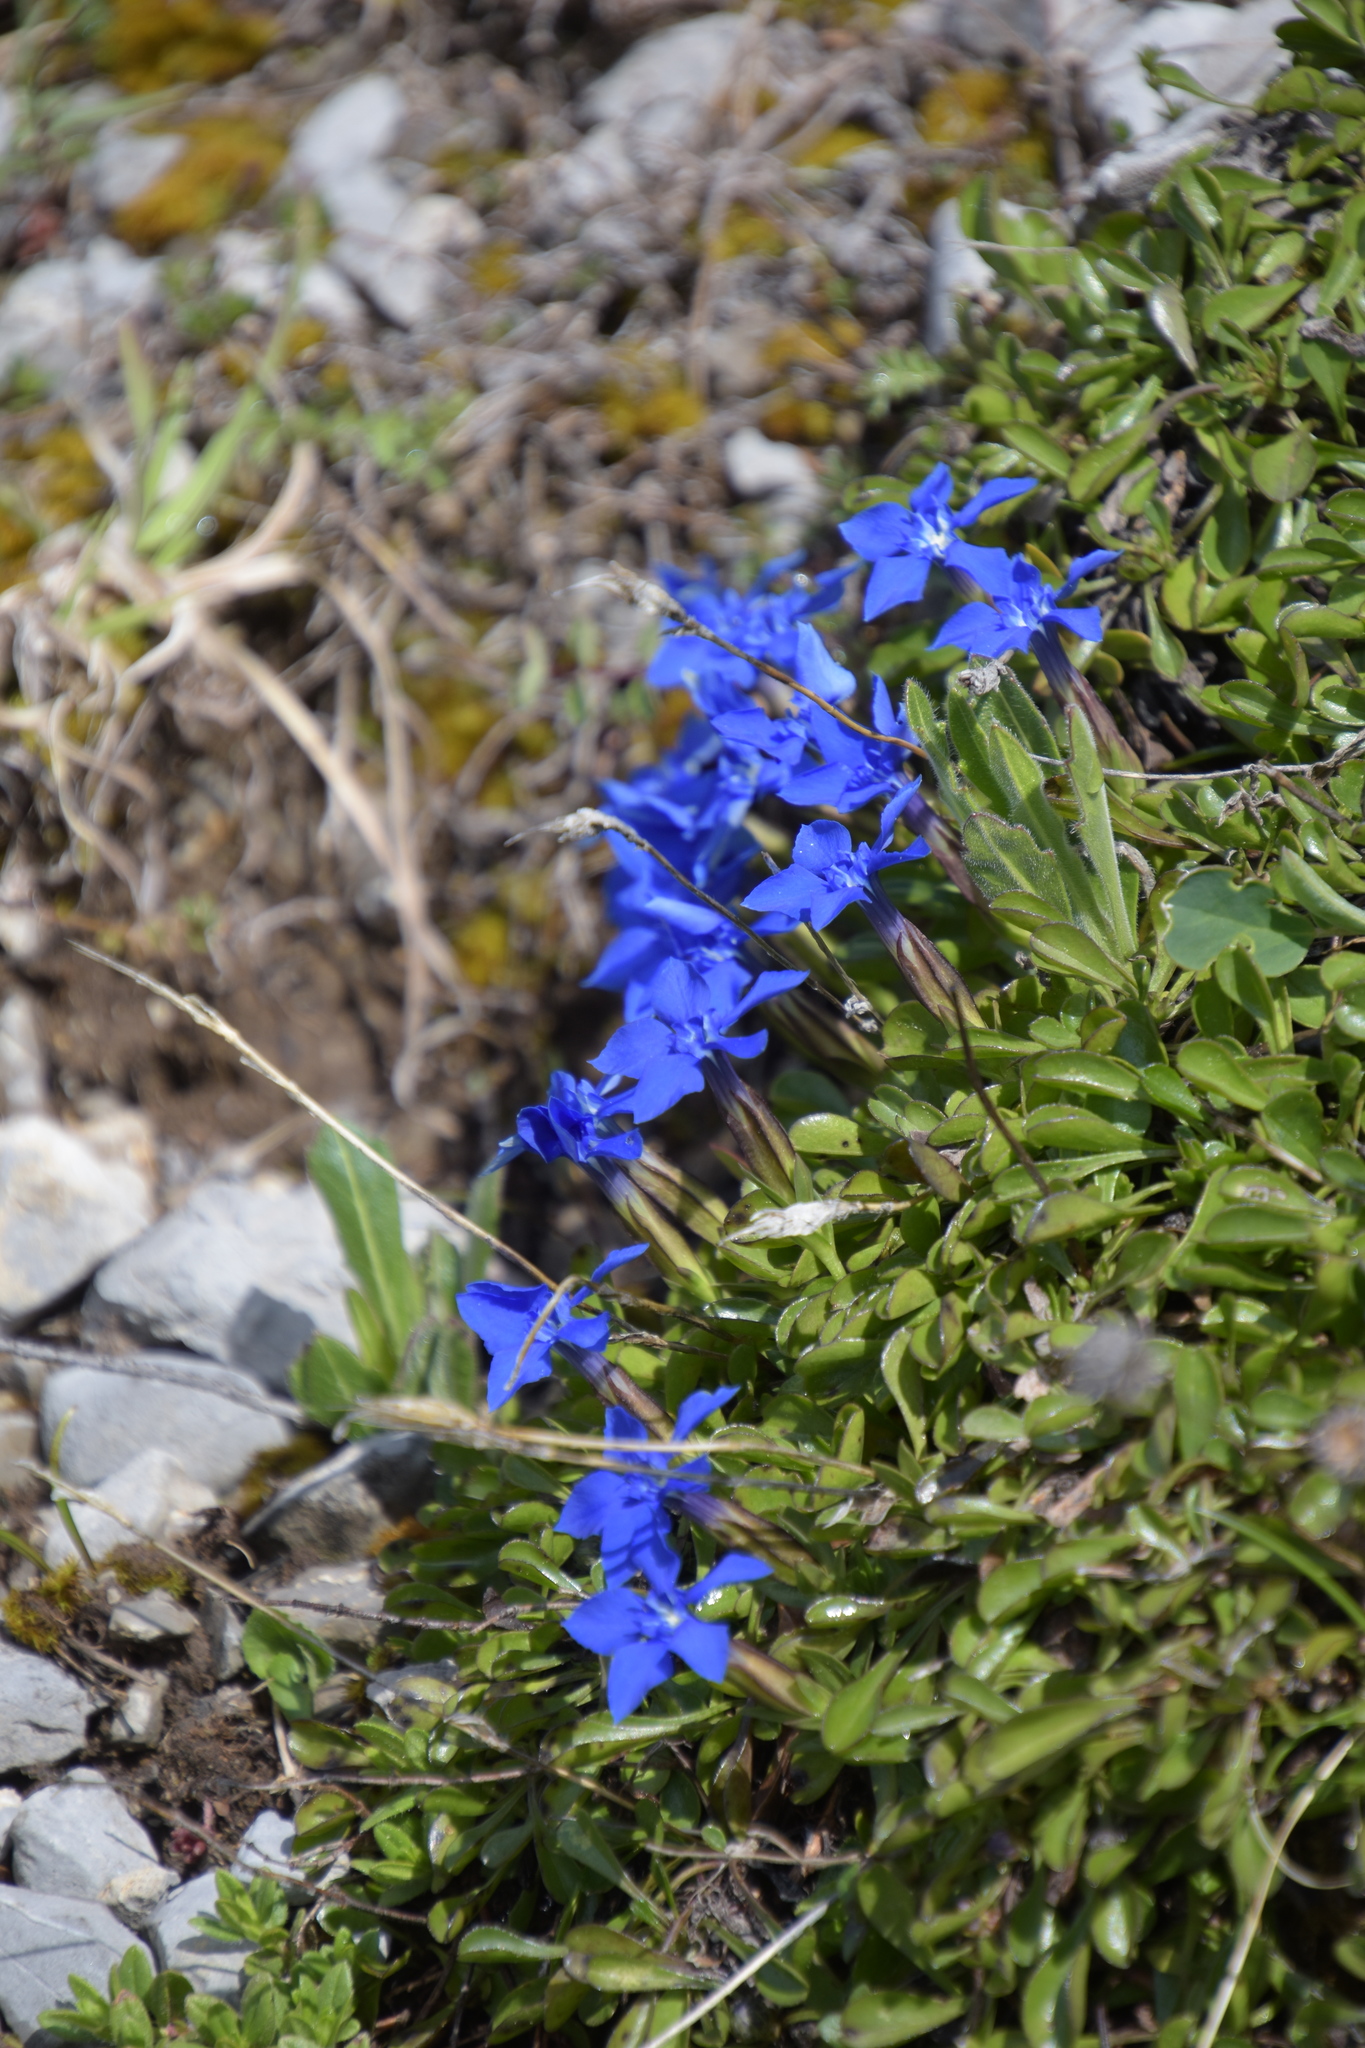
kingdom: Plantae
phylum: Tracheophyta
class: Magnoliopsida
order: Gentianales
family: Gentianaceae
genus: Gentiana
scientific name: Gentiana verna
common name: Spring gentian
